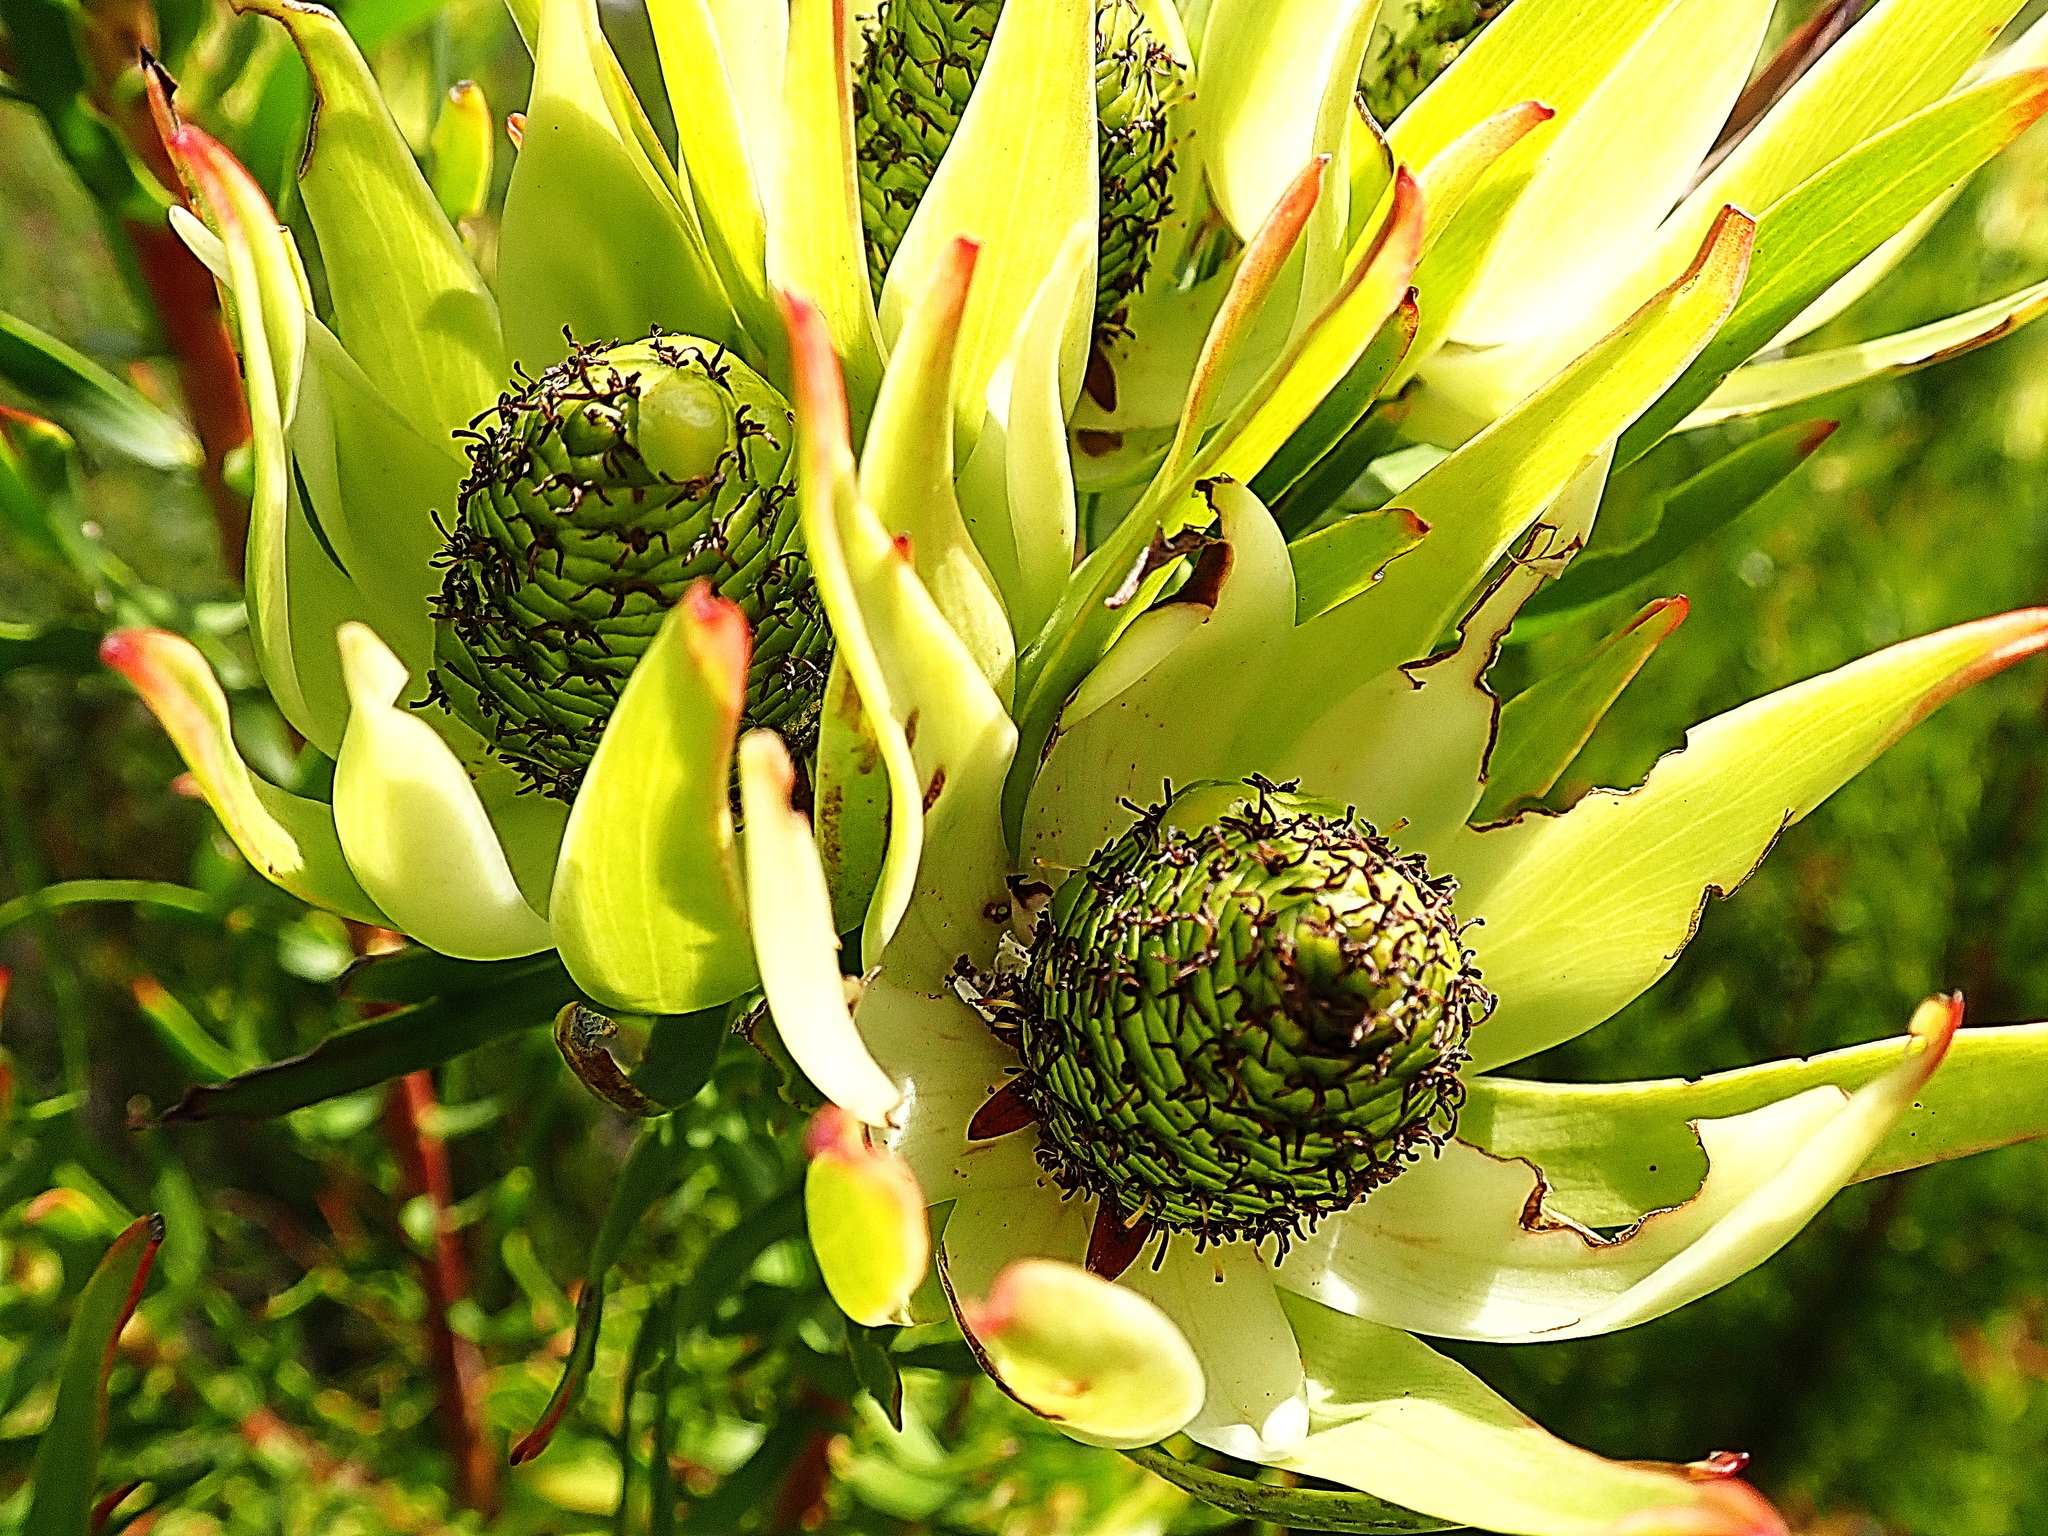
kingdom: Plantae
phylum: Tracheophyta
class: Magnoliopsida
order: Proteales
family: Proteaceae
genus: Leucadendron
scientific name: Leucadendron spissifolium
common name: Spear-leaf conebush
